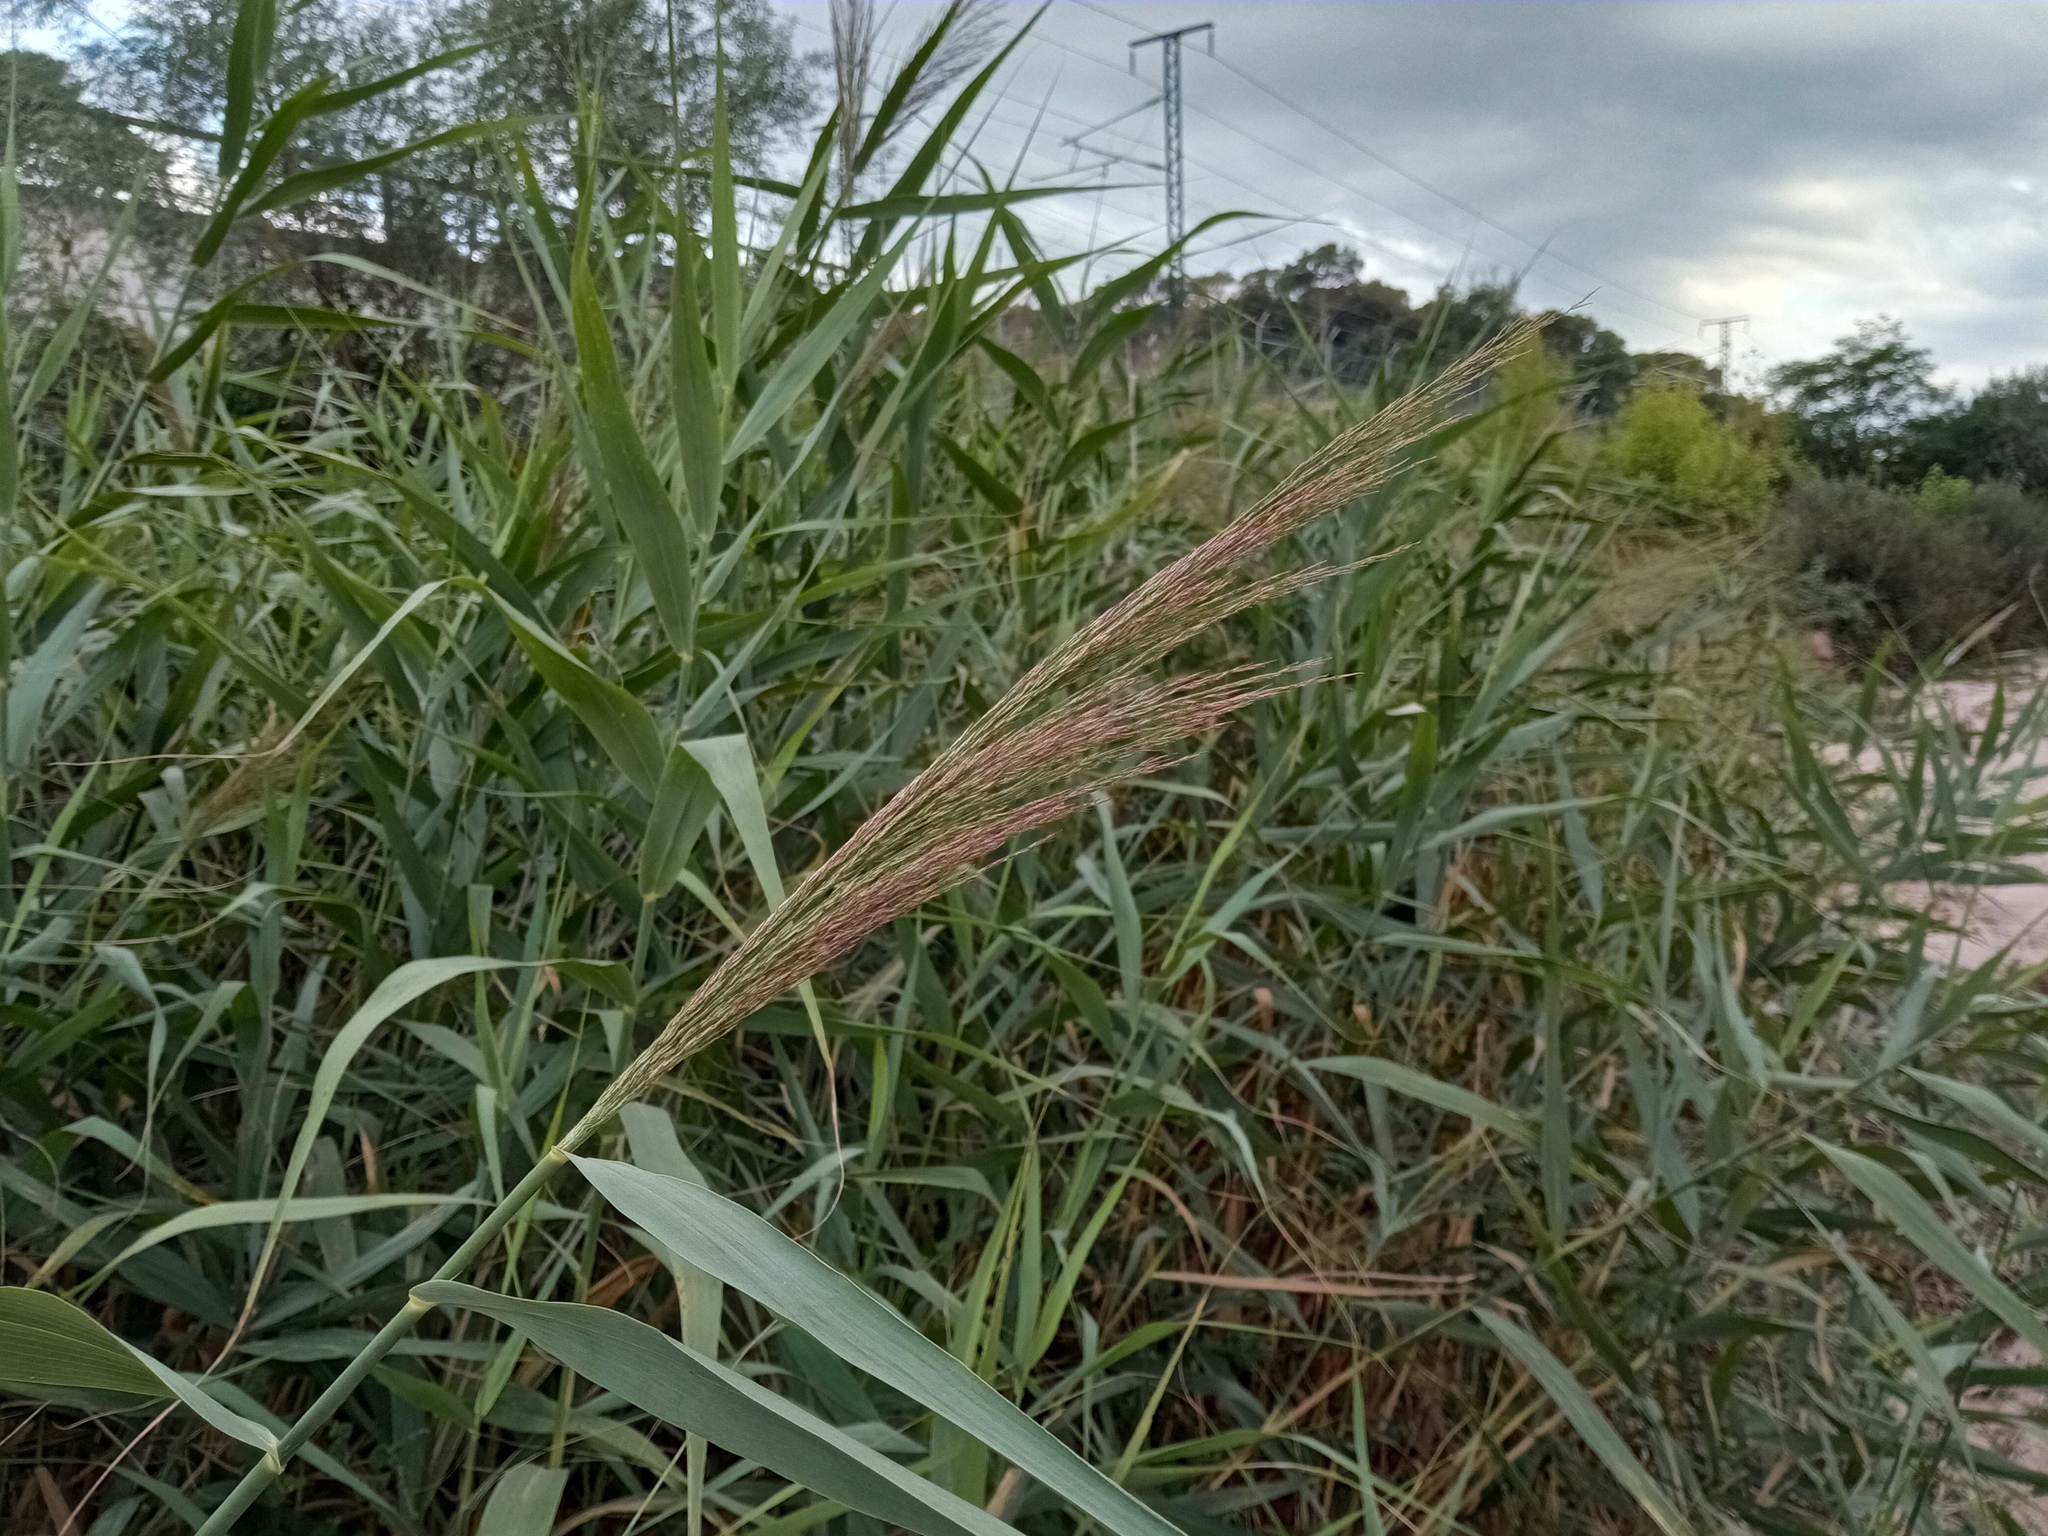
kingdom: Plantae
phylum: Tracheophyta
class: Liliopsida
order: Poales
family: Poaceae
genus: Phragmites
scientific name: Phragmites australis
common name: Common reed
